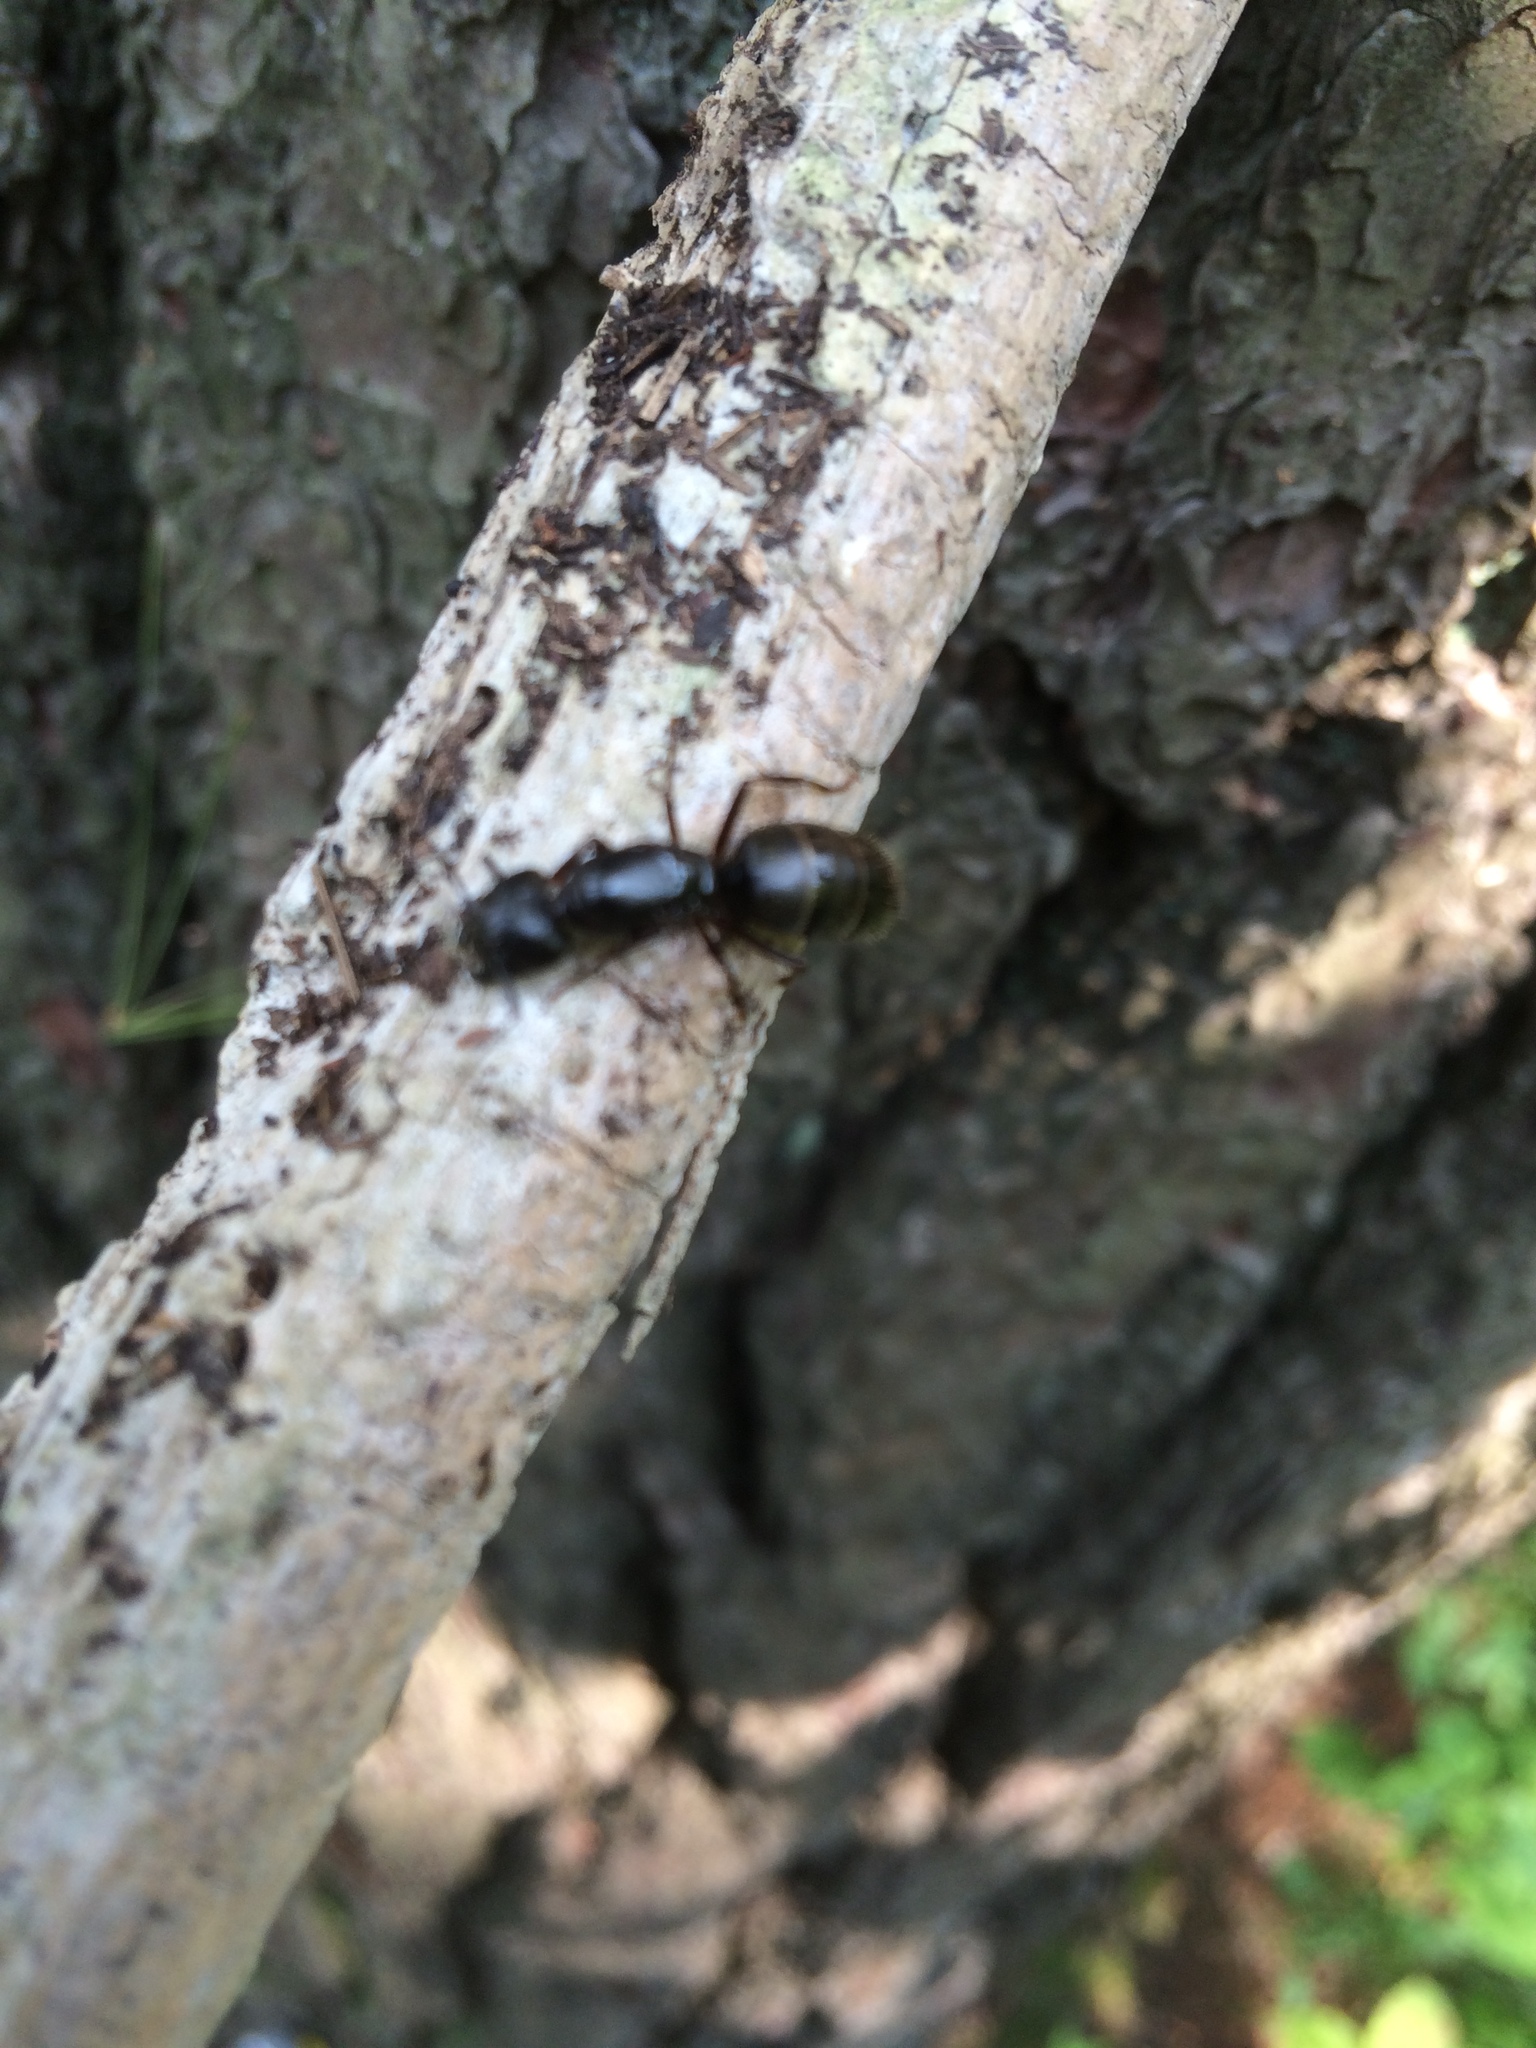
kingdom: Animalia
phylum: Arthropoda
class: Insecta
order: Hymenoptera
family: Formicidae
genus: Camponotus
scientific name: Camponotus pennsylvanicus
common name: Black carpenter ant
